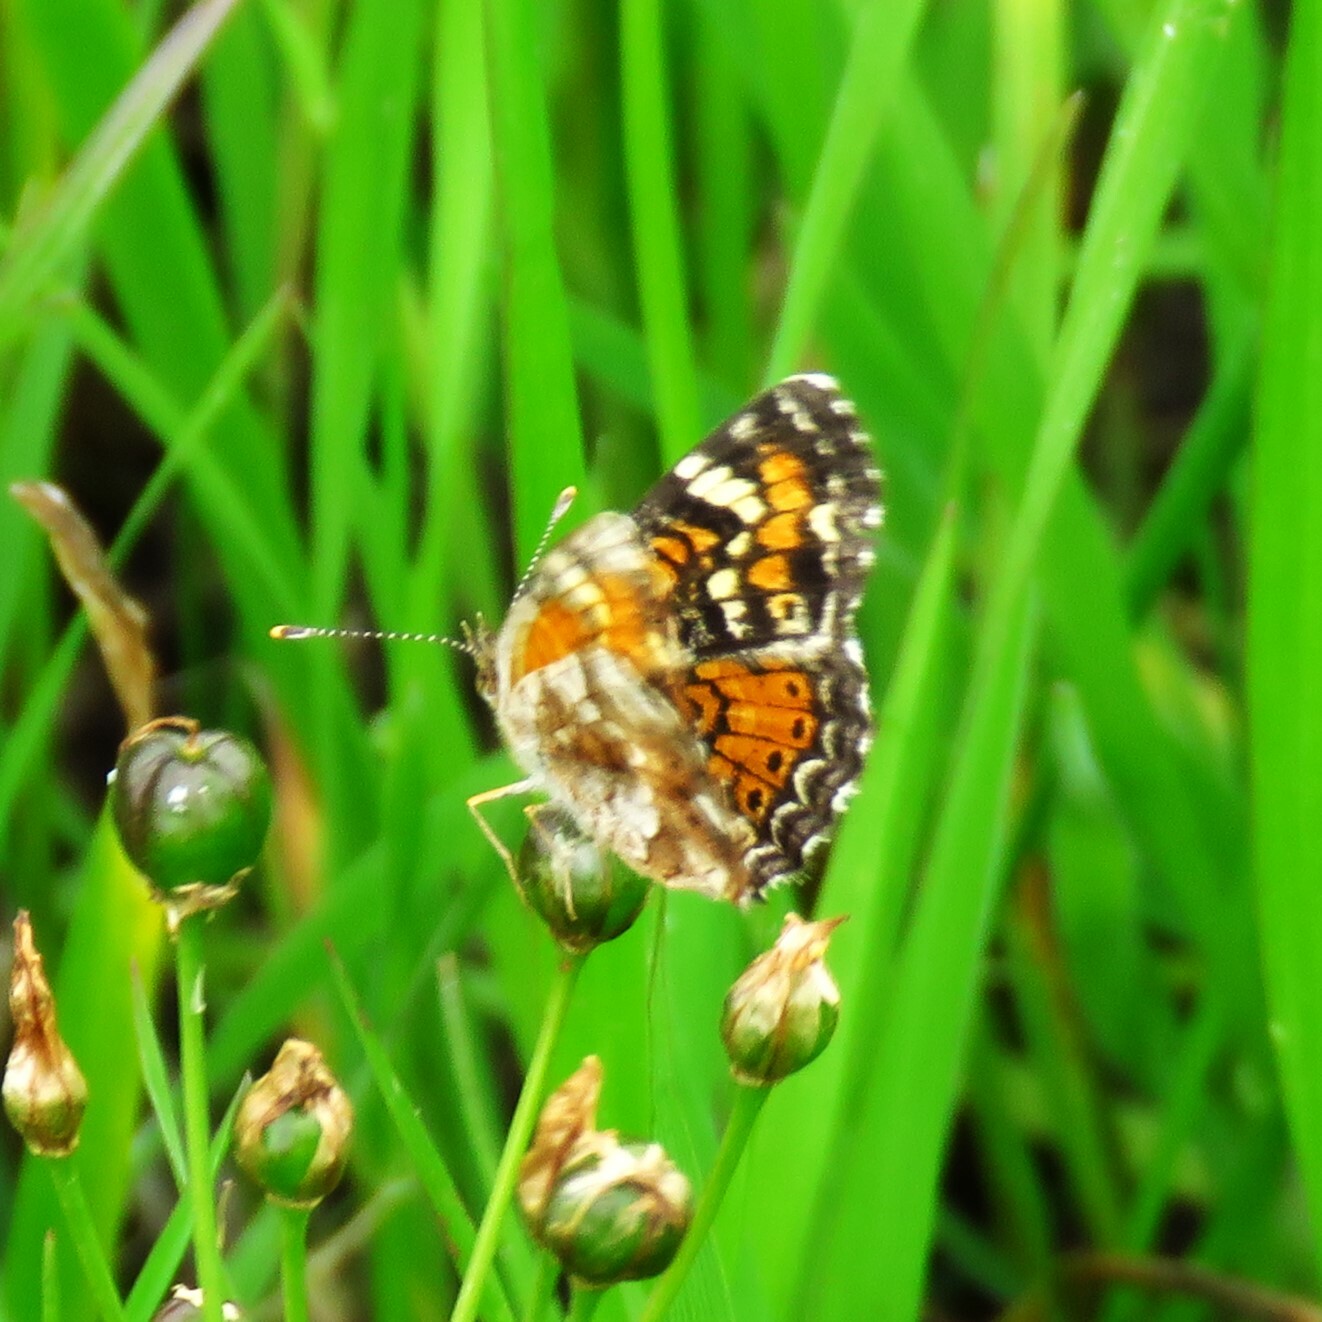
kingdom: Animalia
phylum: Arthropoda
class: Insecta
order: Lepidoptera
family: Nymphalidae
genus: Phyciodes
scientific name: Phyciodes phaon
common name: Phaon crescent
